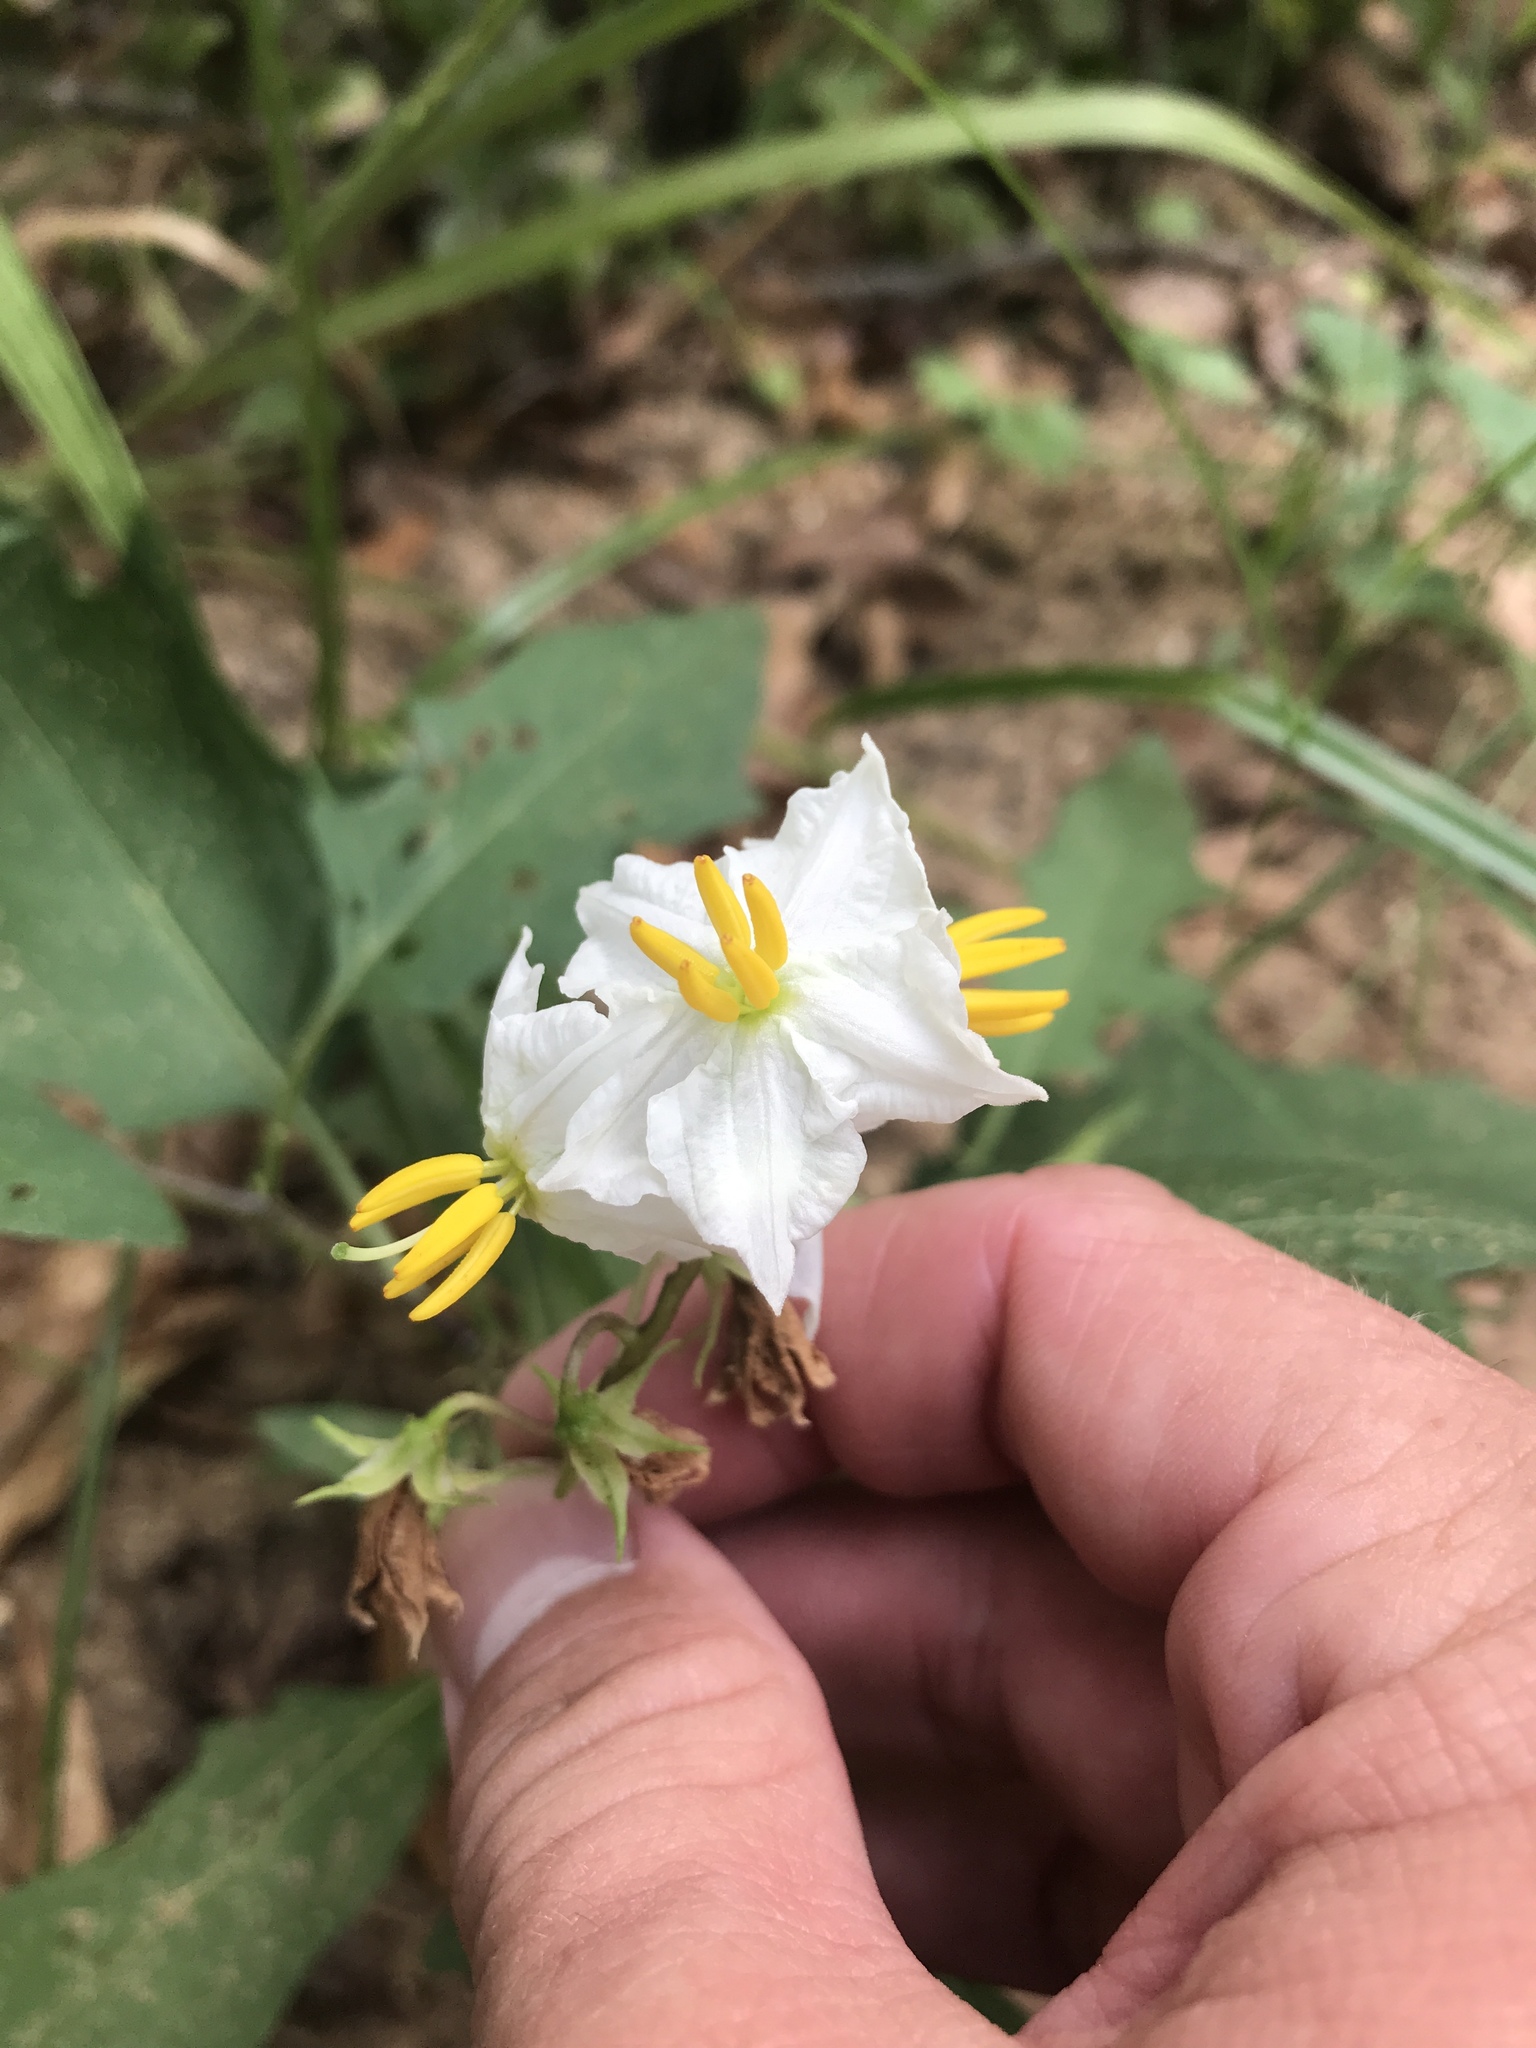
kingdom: Plantae
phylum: Tracheophyta
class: Magnoliopsida
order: Solanales
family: Solanaceae
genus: Solanum
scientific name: Solanum carolinense
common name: Horse-nettle
